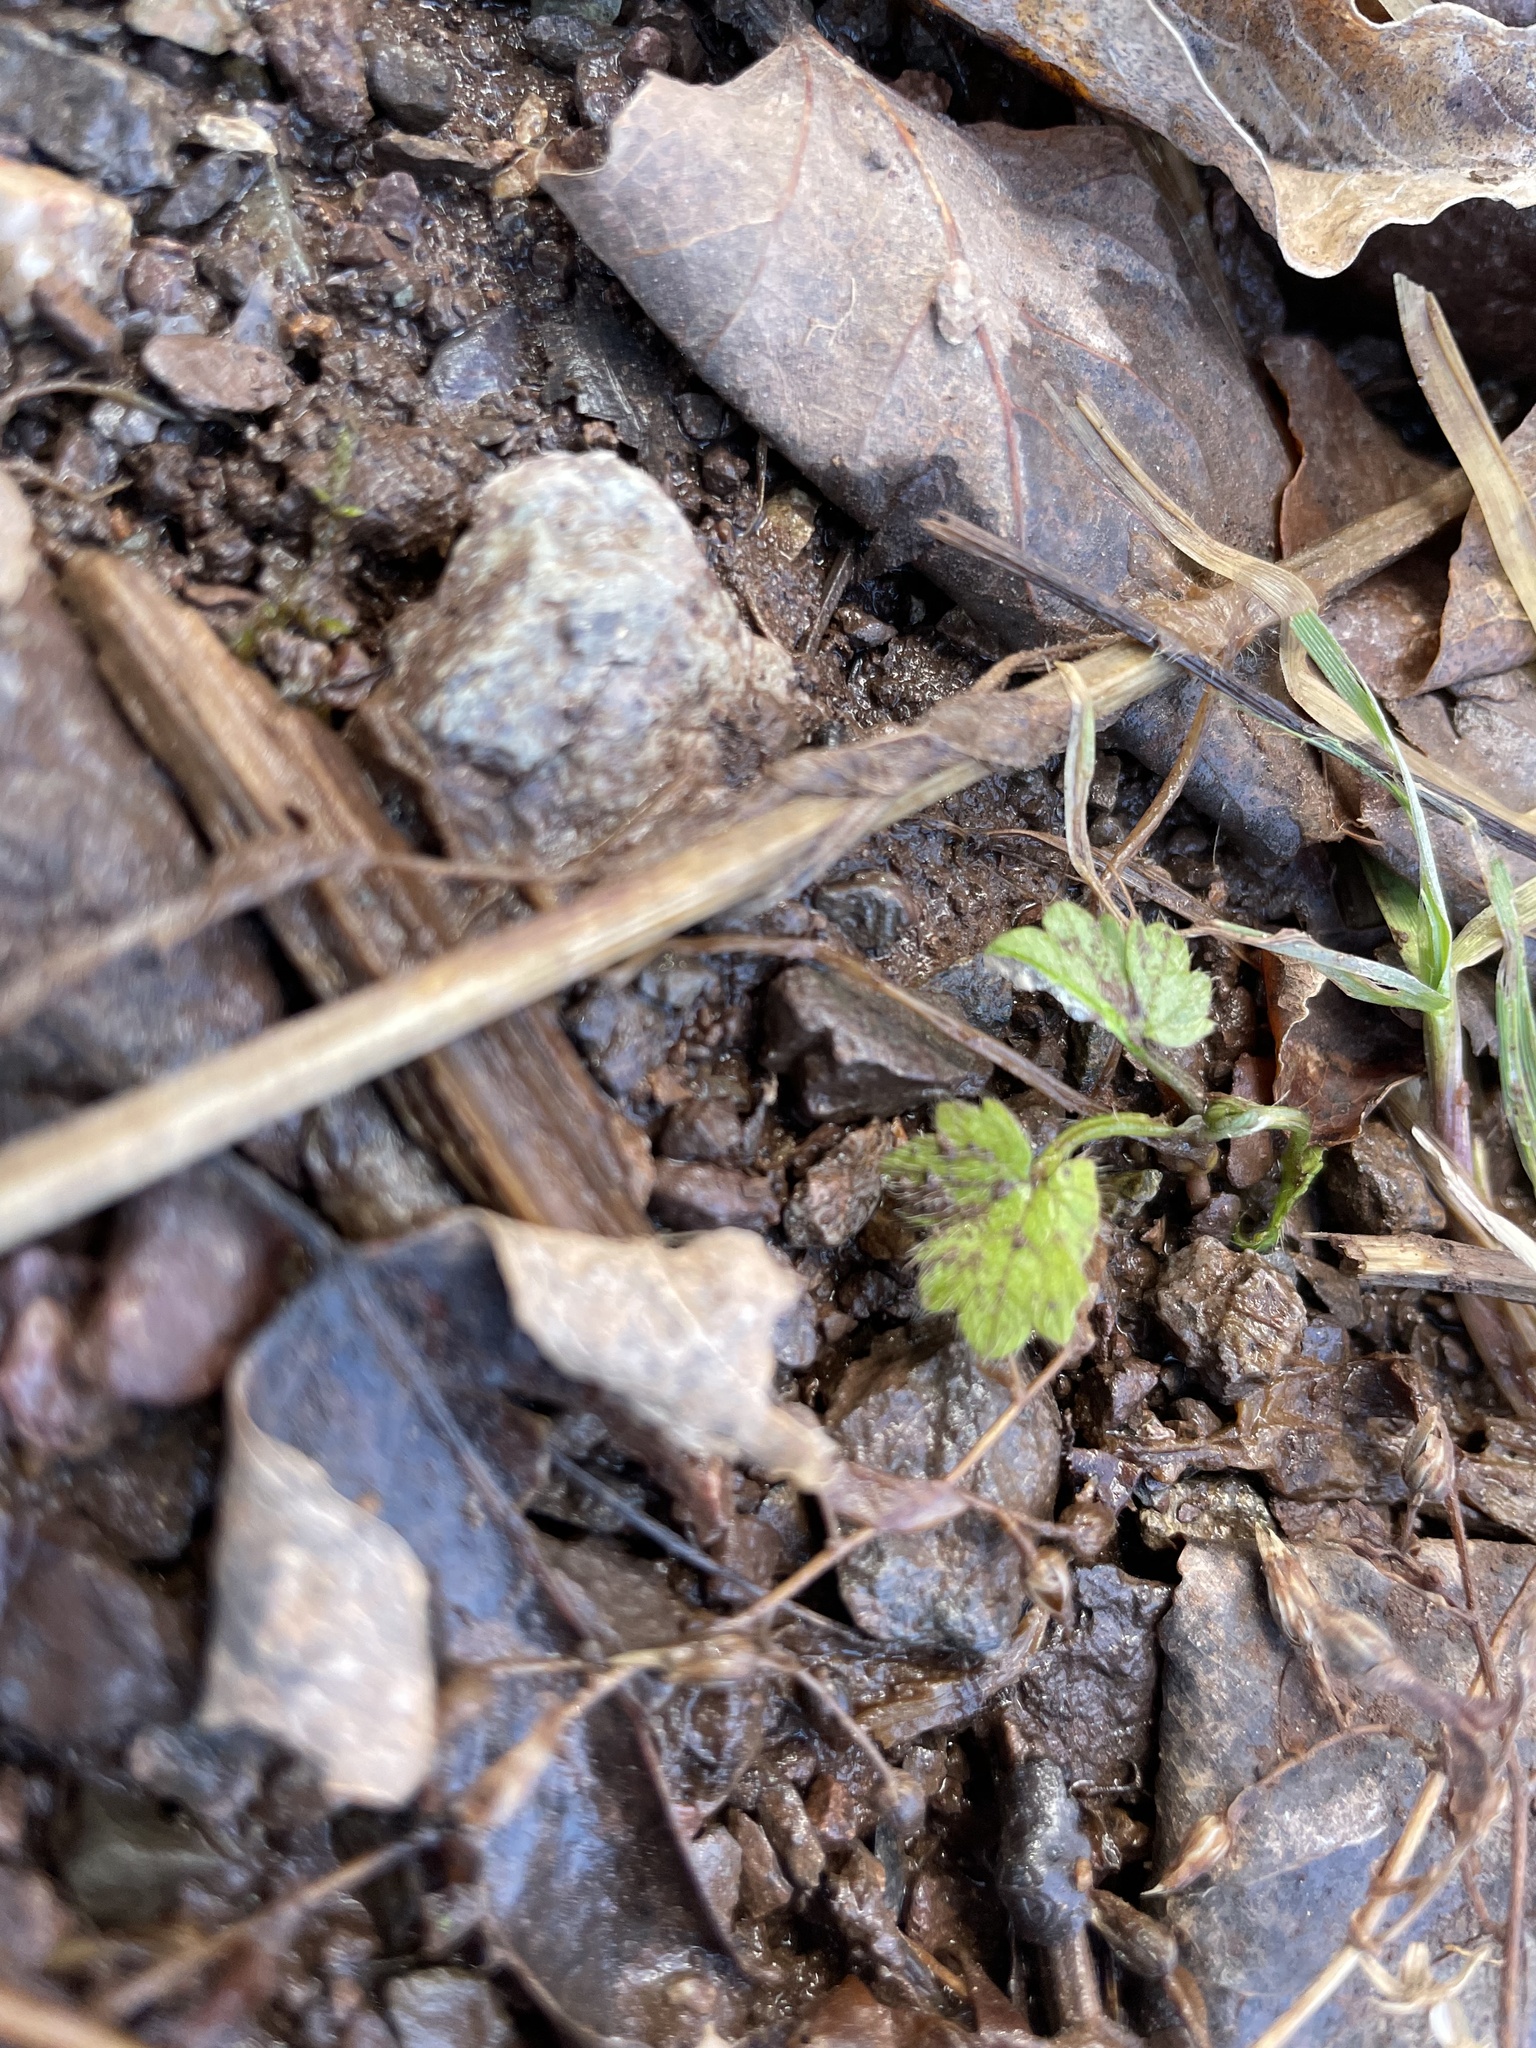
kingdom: Plantae
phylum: Tracheophyta
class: Magnoliopsida
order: Ranunculales
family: Ranunculaceae
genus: Ranunculus
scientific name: Ranunculus repens
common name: Creeping buttercup
